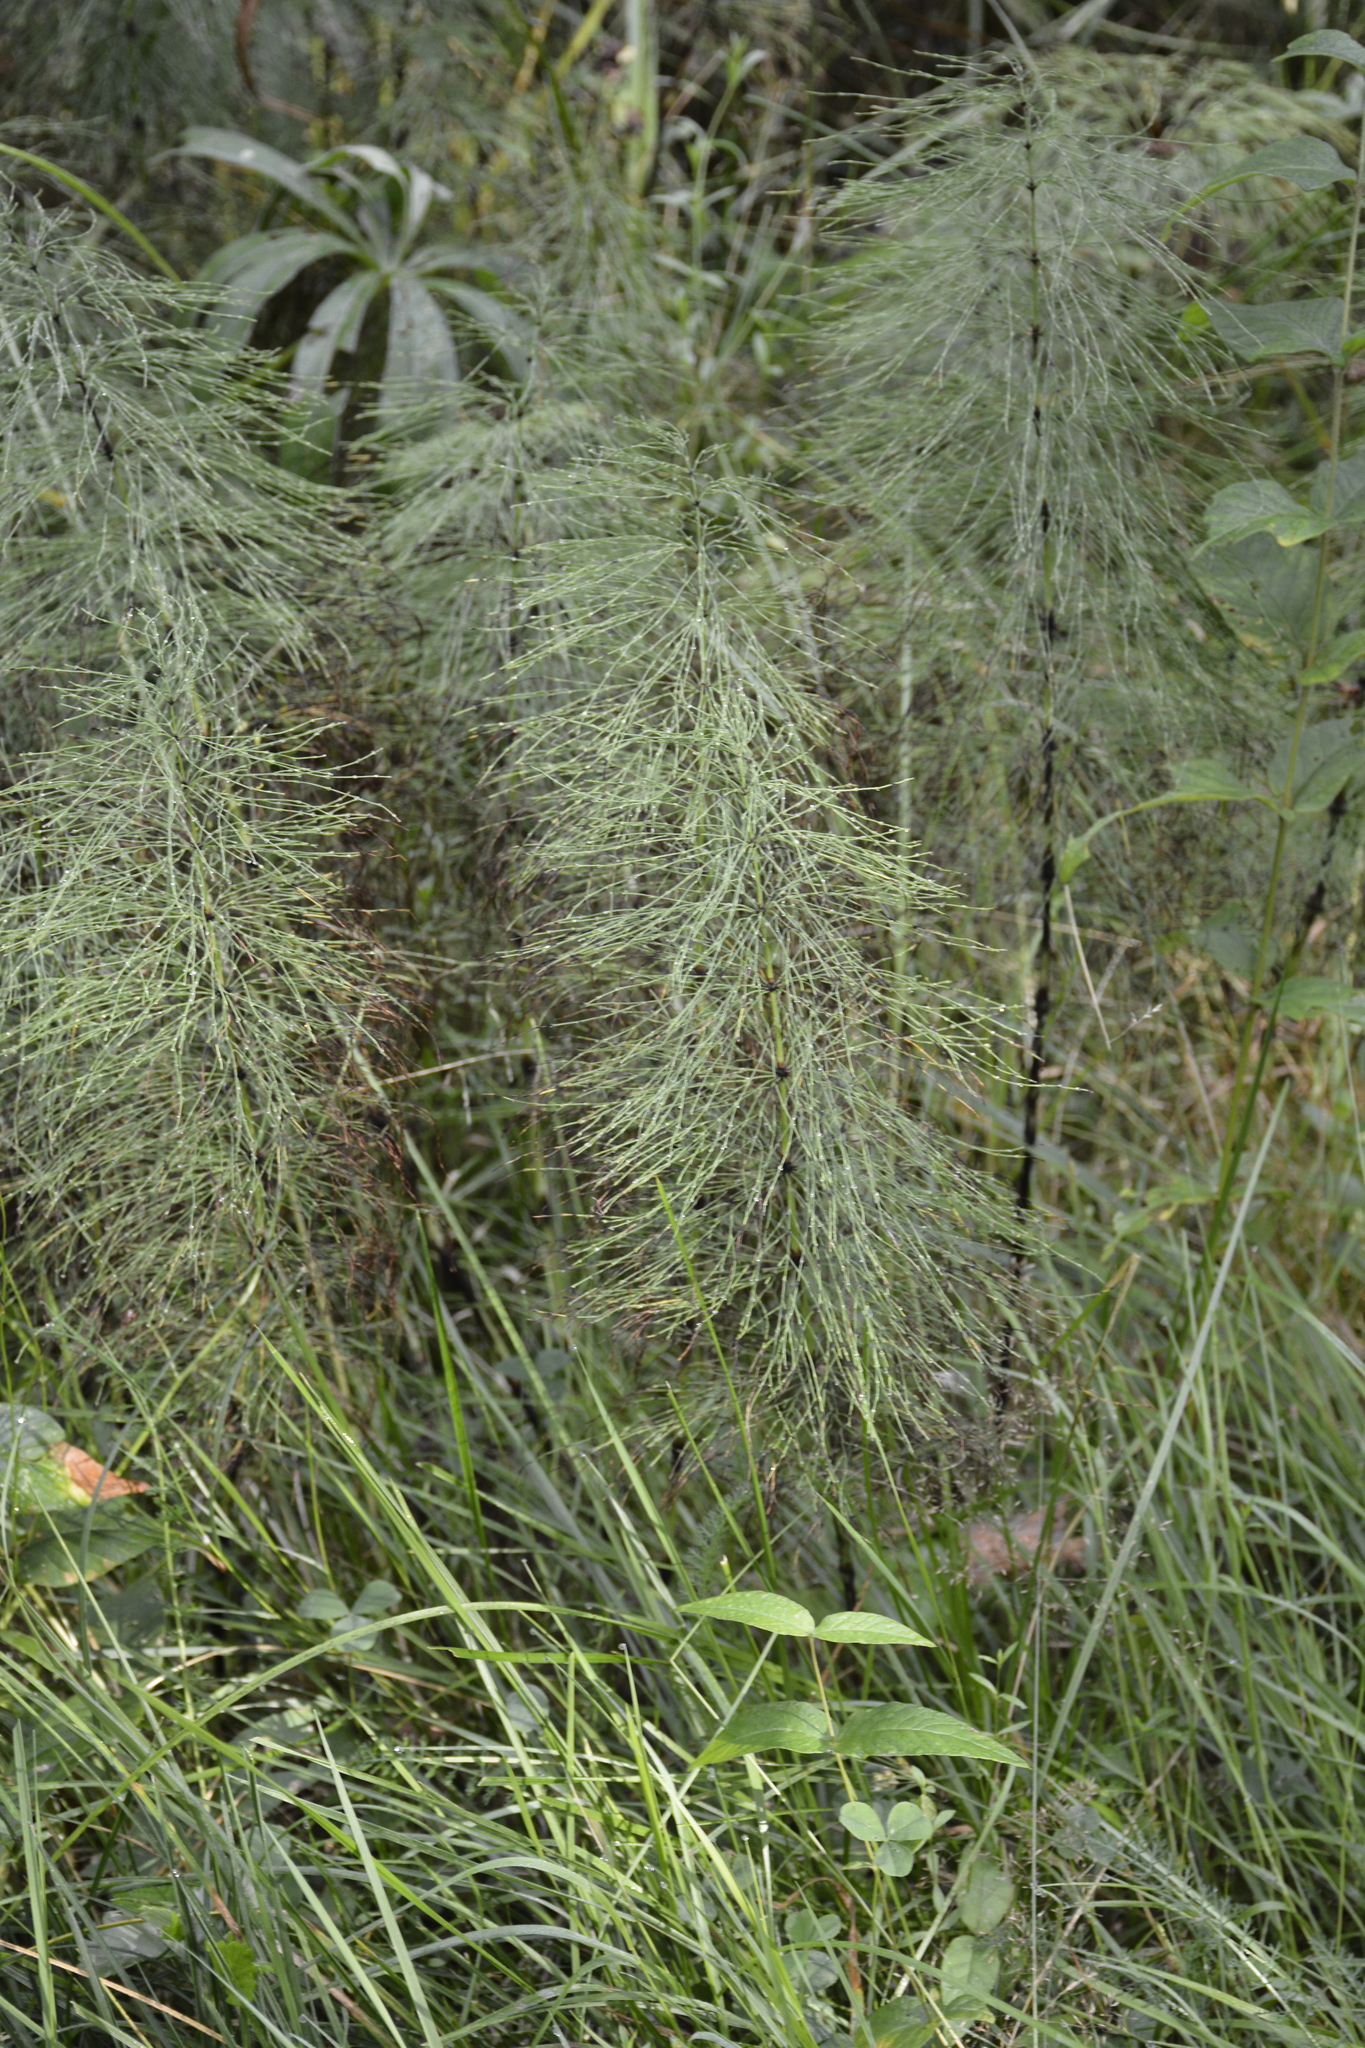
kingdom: Plantae
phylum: Tracheophyta
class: Polypodiopsida
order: Equisetales
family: Equisetaceae
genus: Equisetum
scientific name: Equisetum sylvaticum
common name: Wood horsetail
